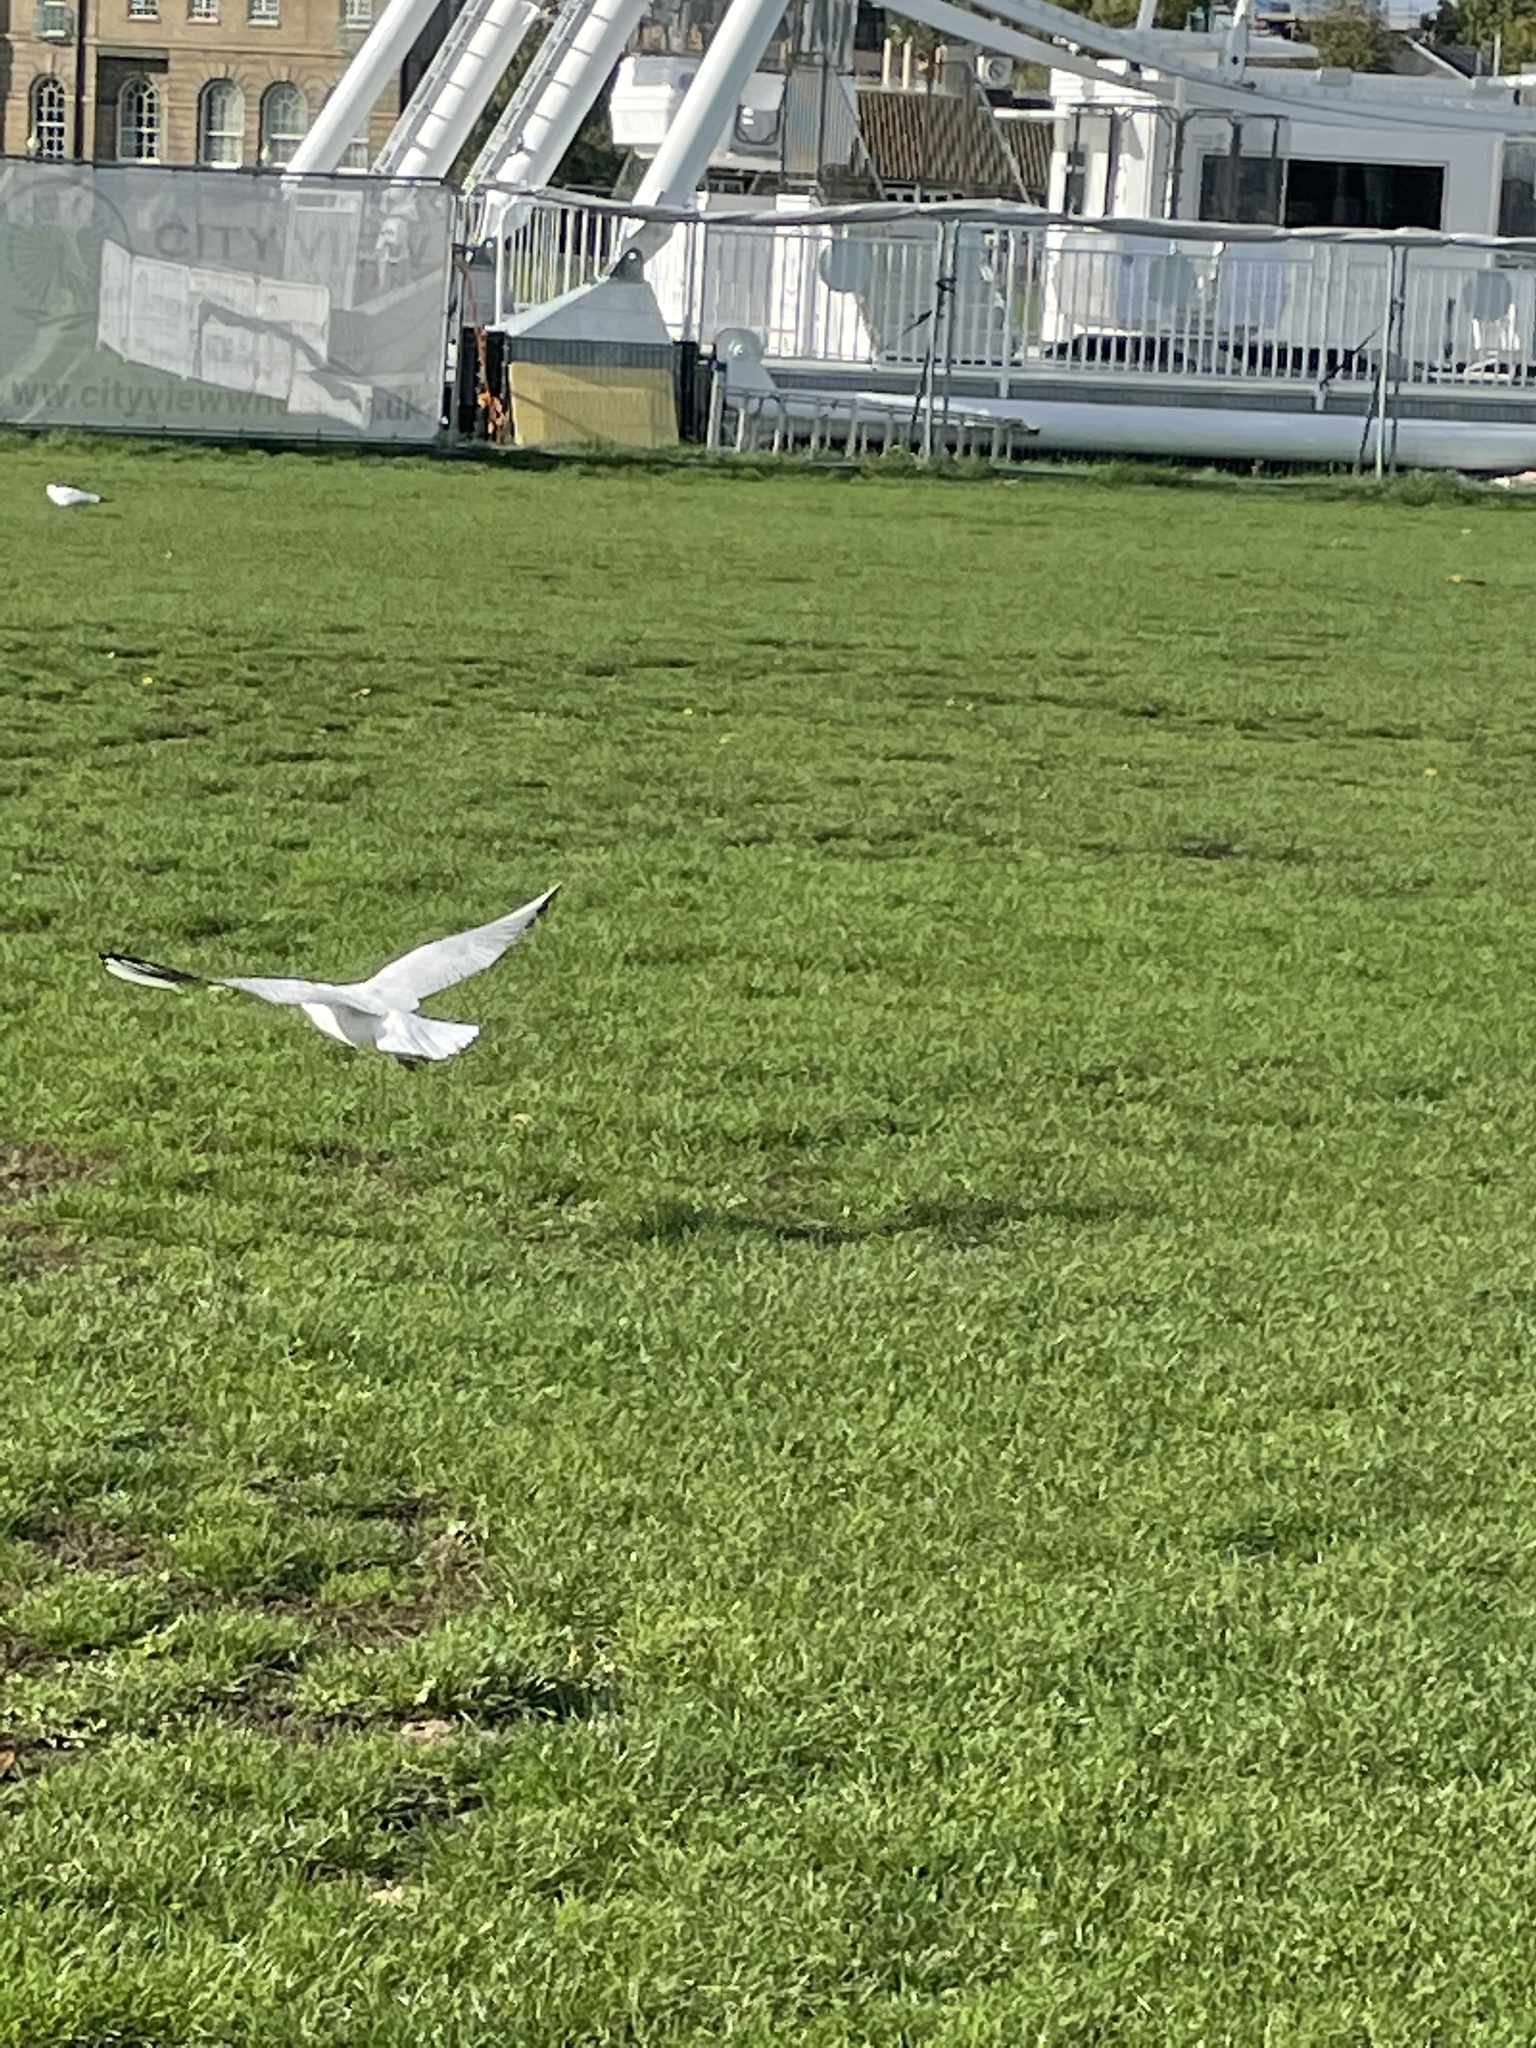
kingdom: Animalia
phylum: Chordata
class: Aves
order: Charadriiformes
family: Laridae
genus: Chroicocephalus
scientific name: Chroicocephalus ridibundus
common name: Black-headed gull
